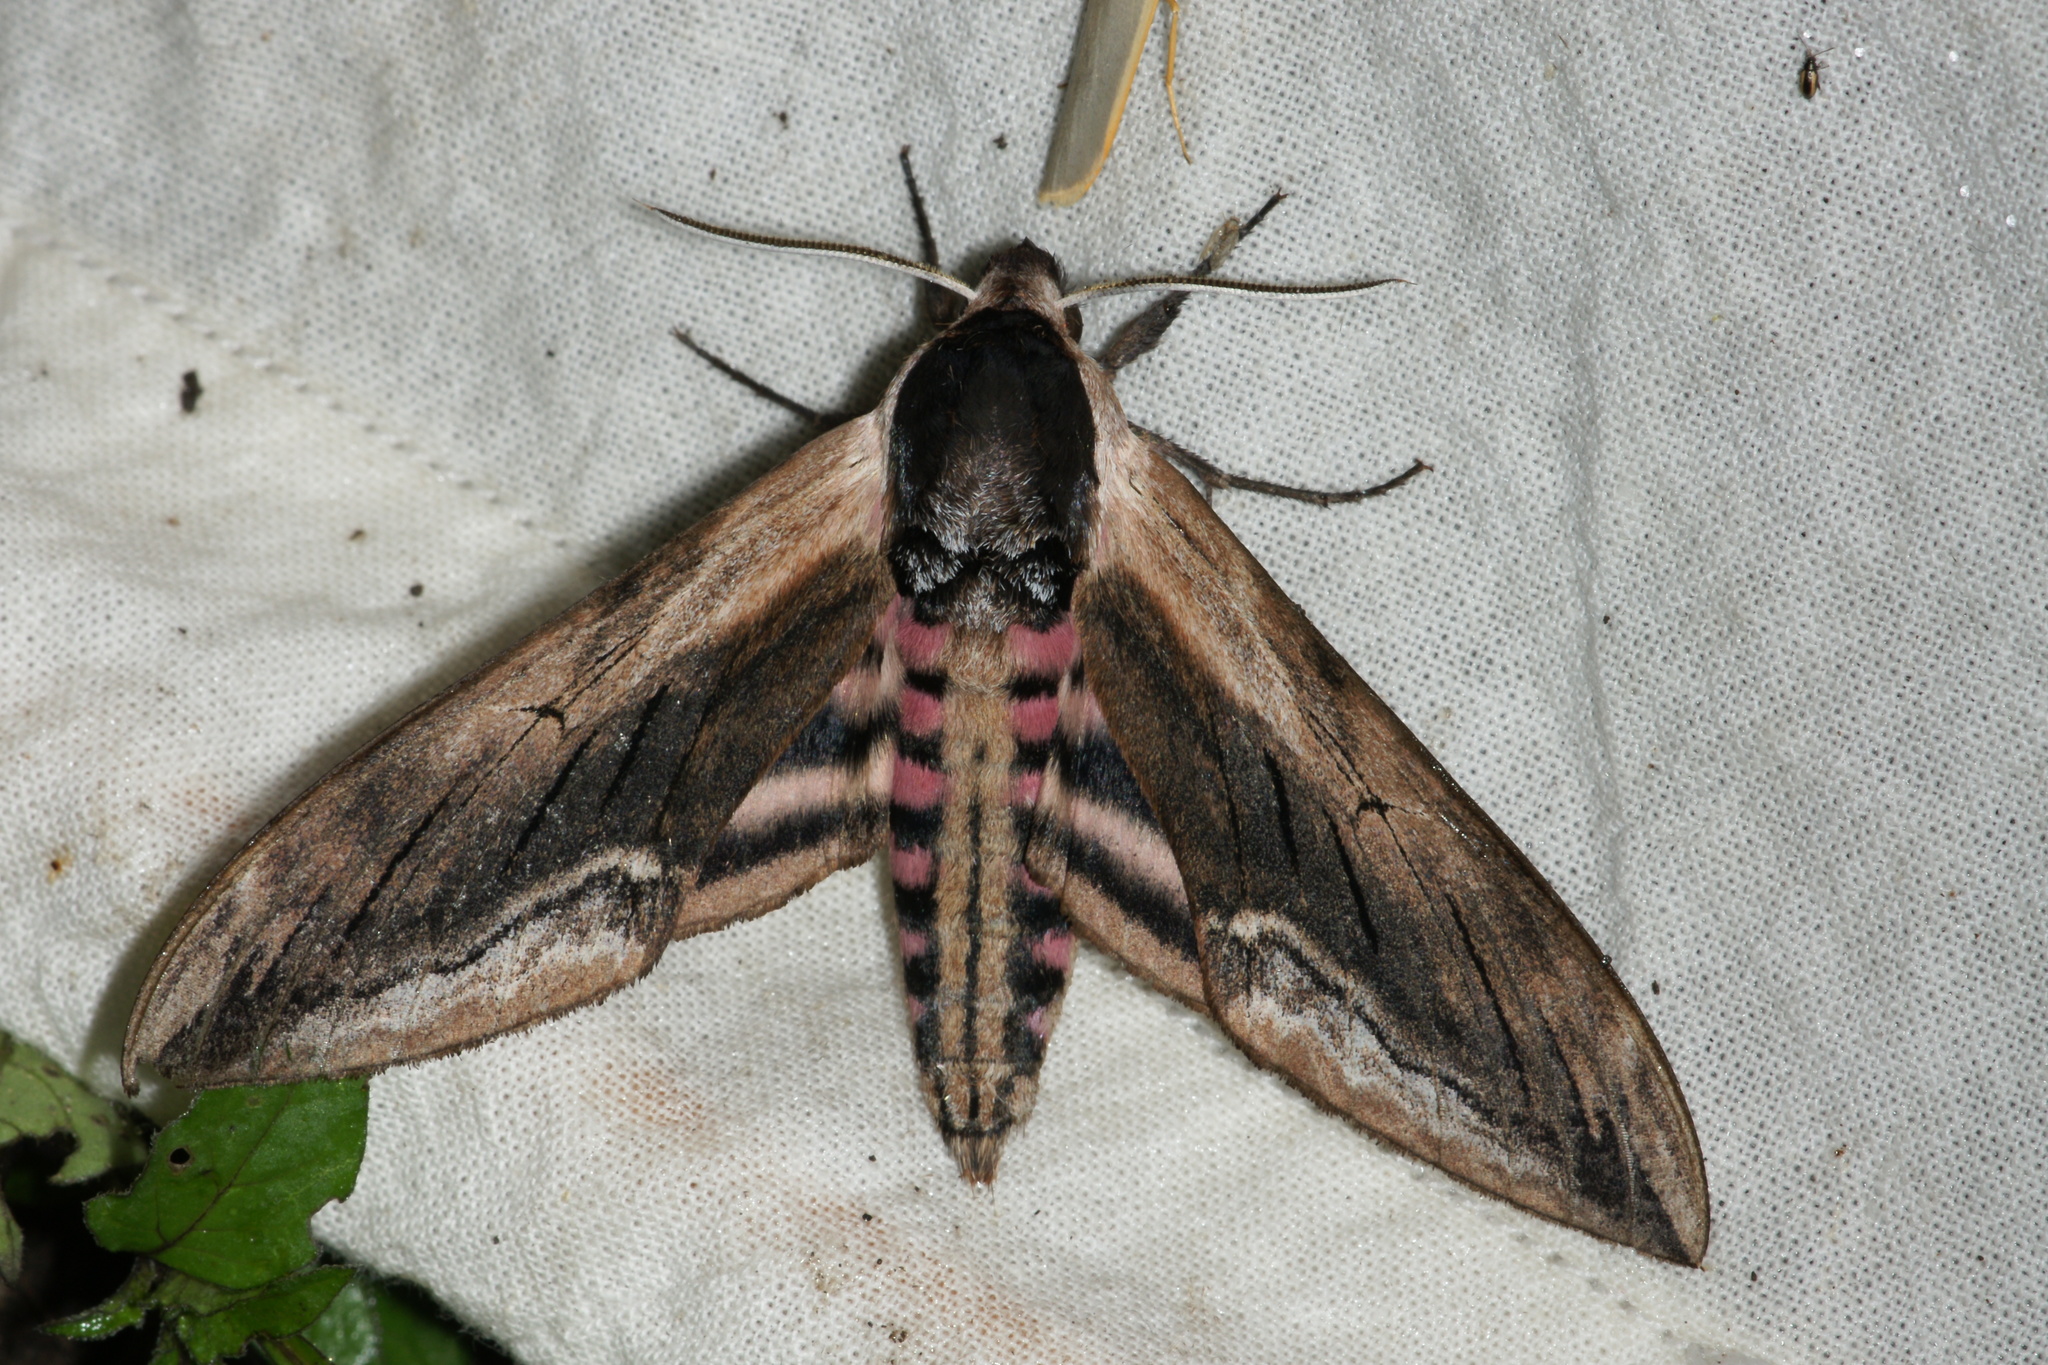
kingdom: Animalia
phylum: Arthropoda
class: Insecta
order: Lepidoptera
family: Sphingidae
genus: Sphinx
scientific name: Sphinx ligustri
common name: Privet hawk-moth
